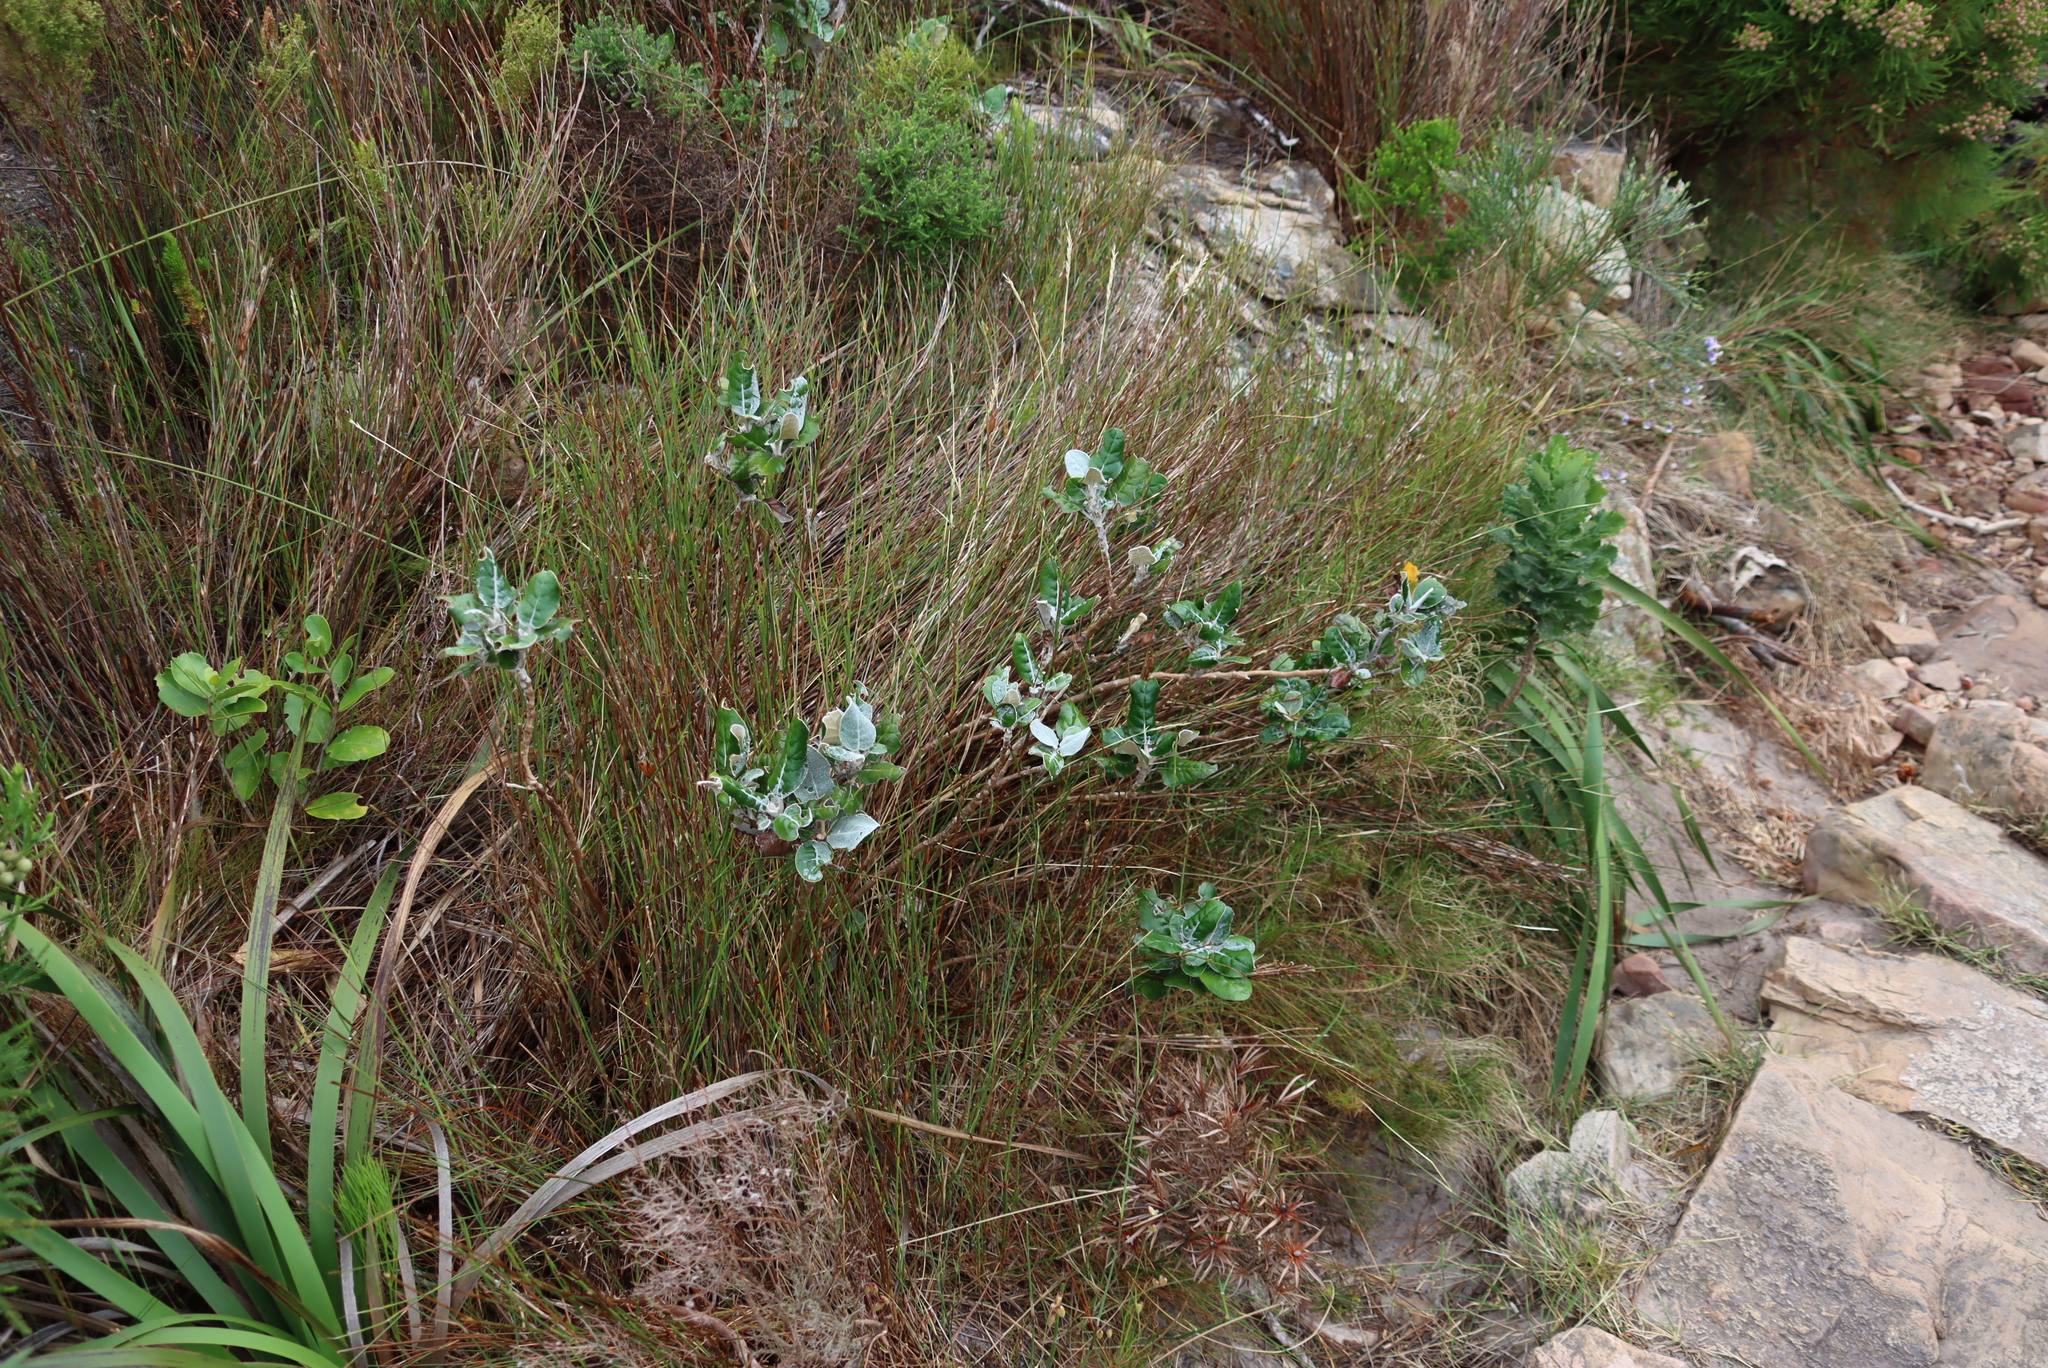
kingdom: Plantae
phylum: Tracheophyta
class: Magnoliopsida
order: Asterales
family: Asteraceae
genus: Capelio
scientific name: Capelio tabularis
